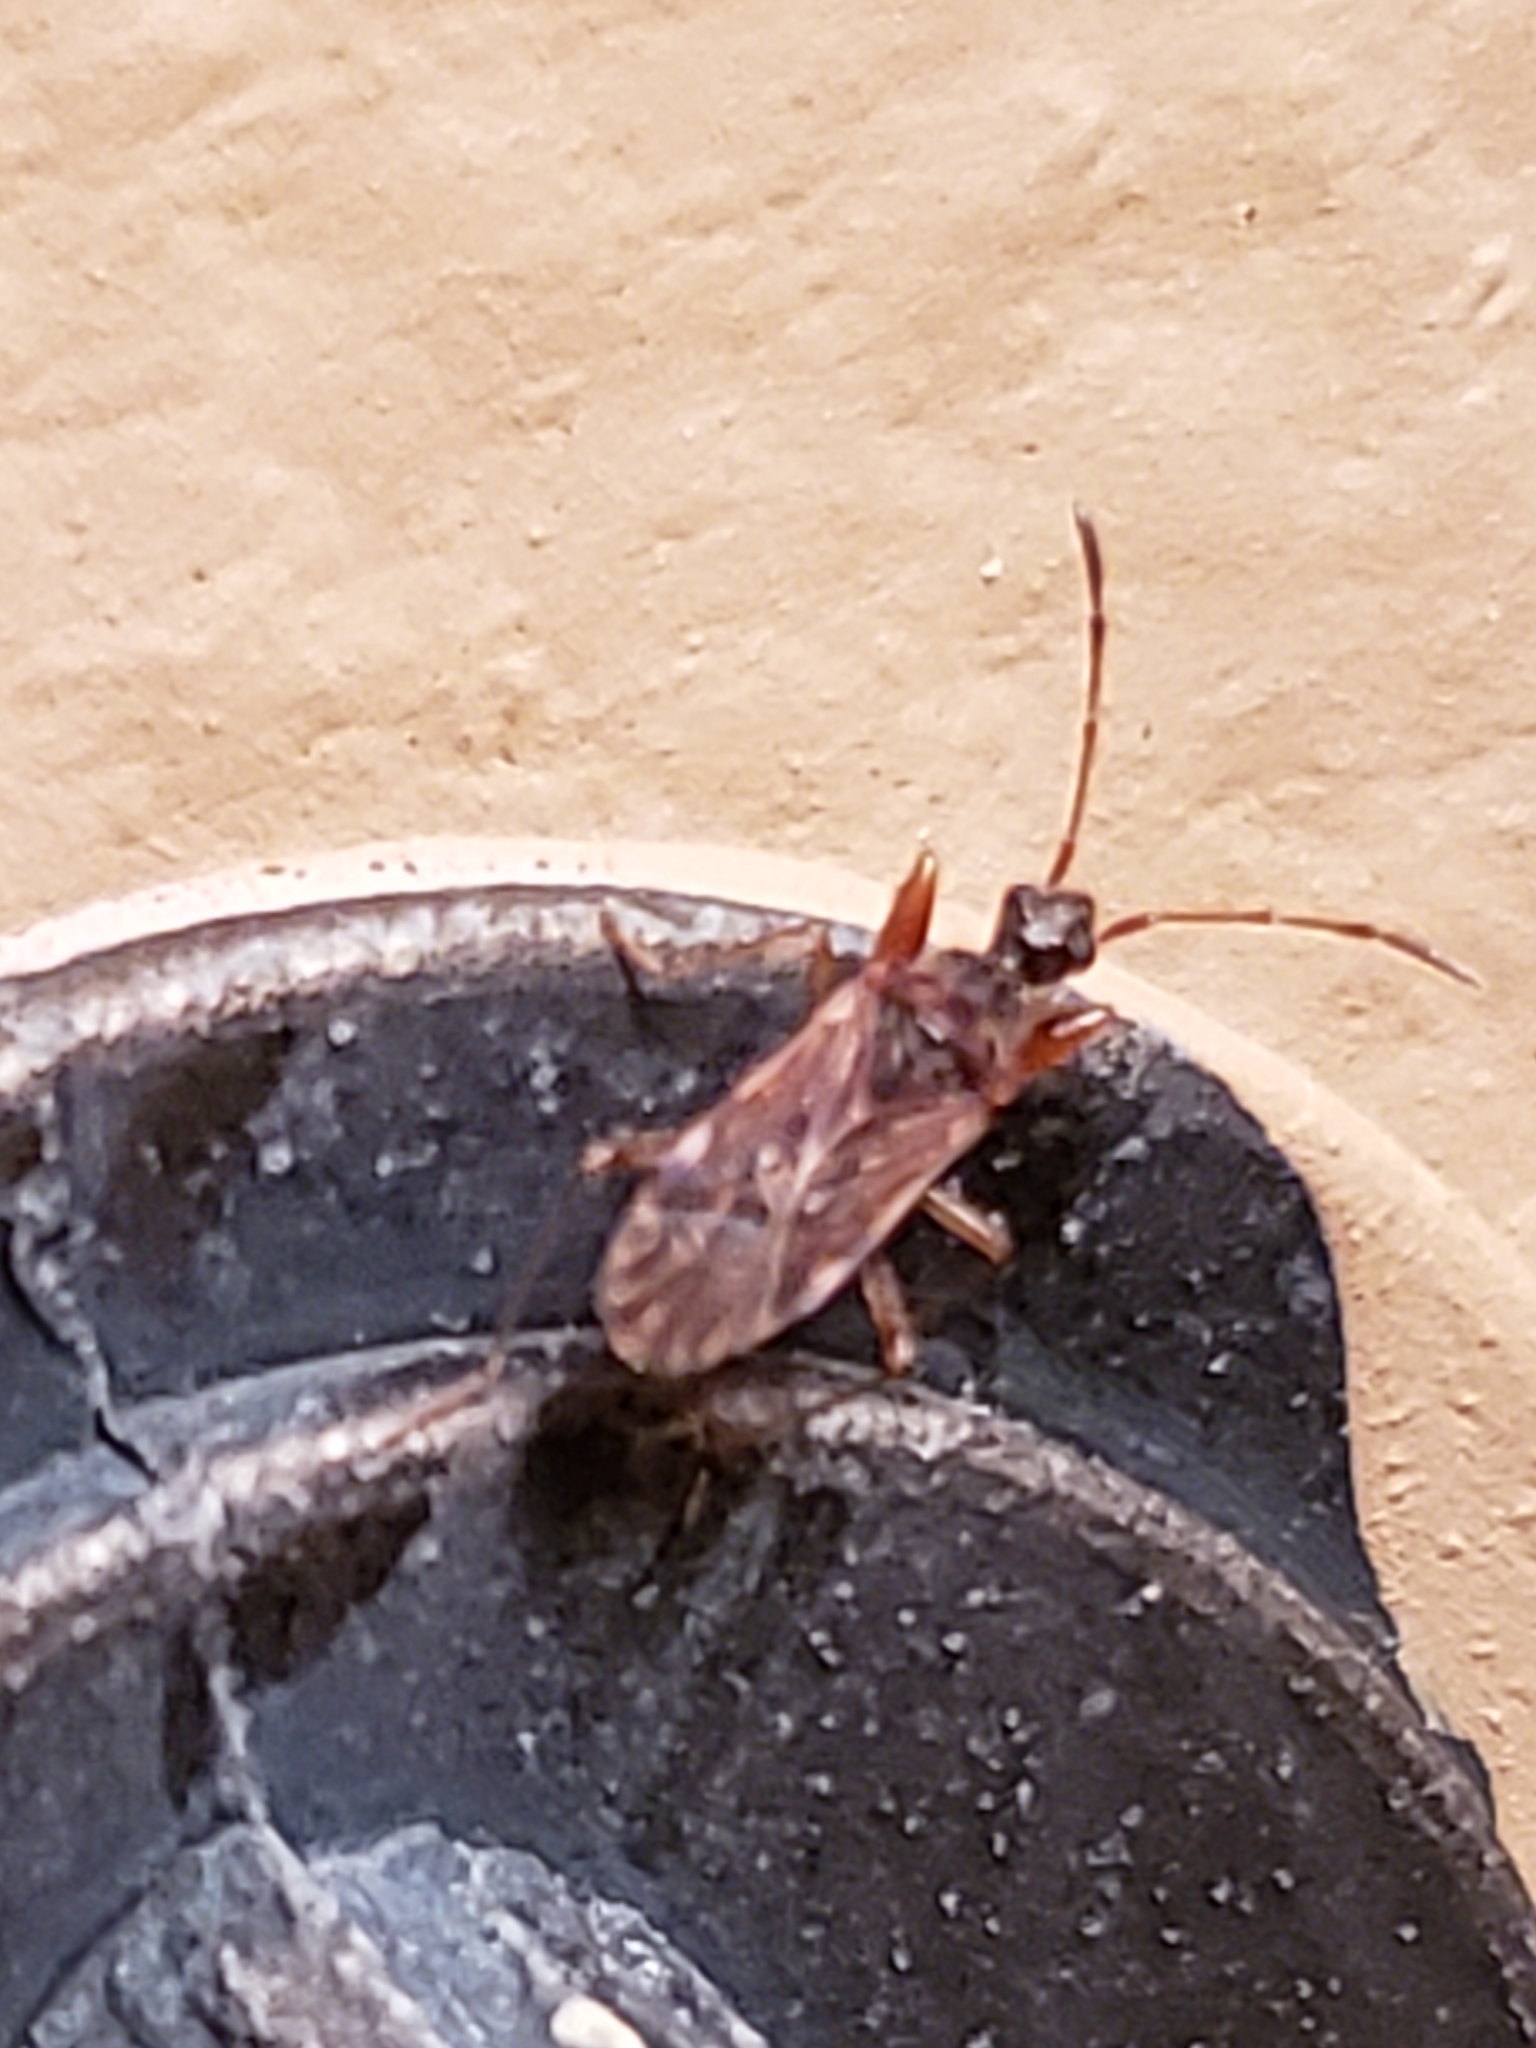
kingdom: Animalia
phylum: Arthropoda
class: Insecta
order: Hemiptera
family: Rhyparochromidae
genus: Heraeus
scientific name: Heraeus plebejus
